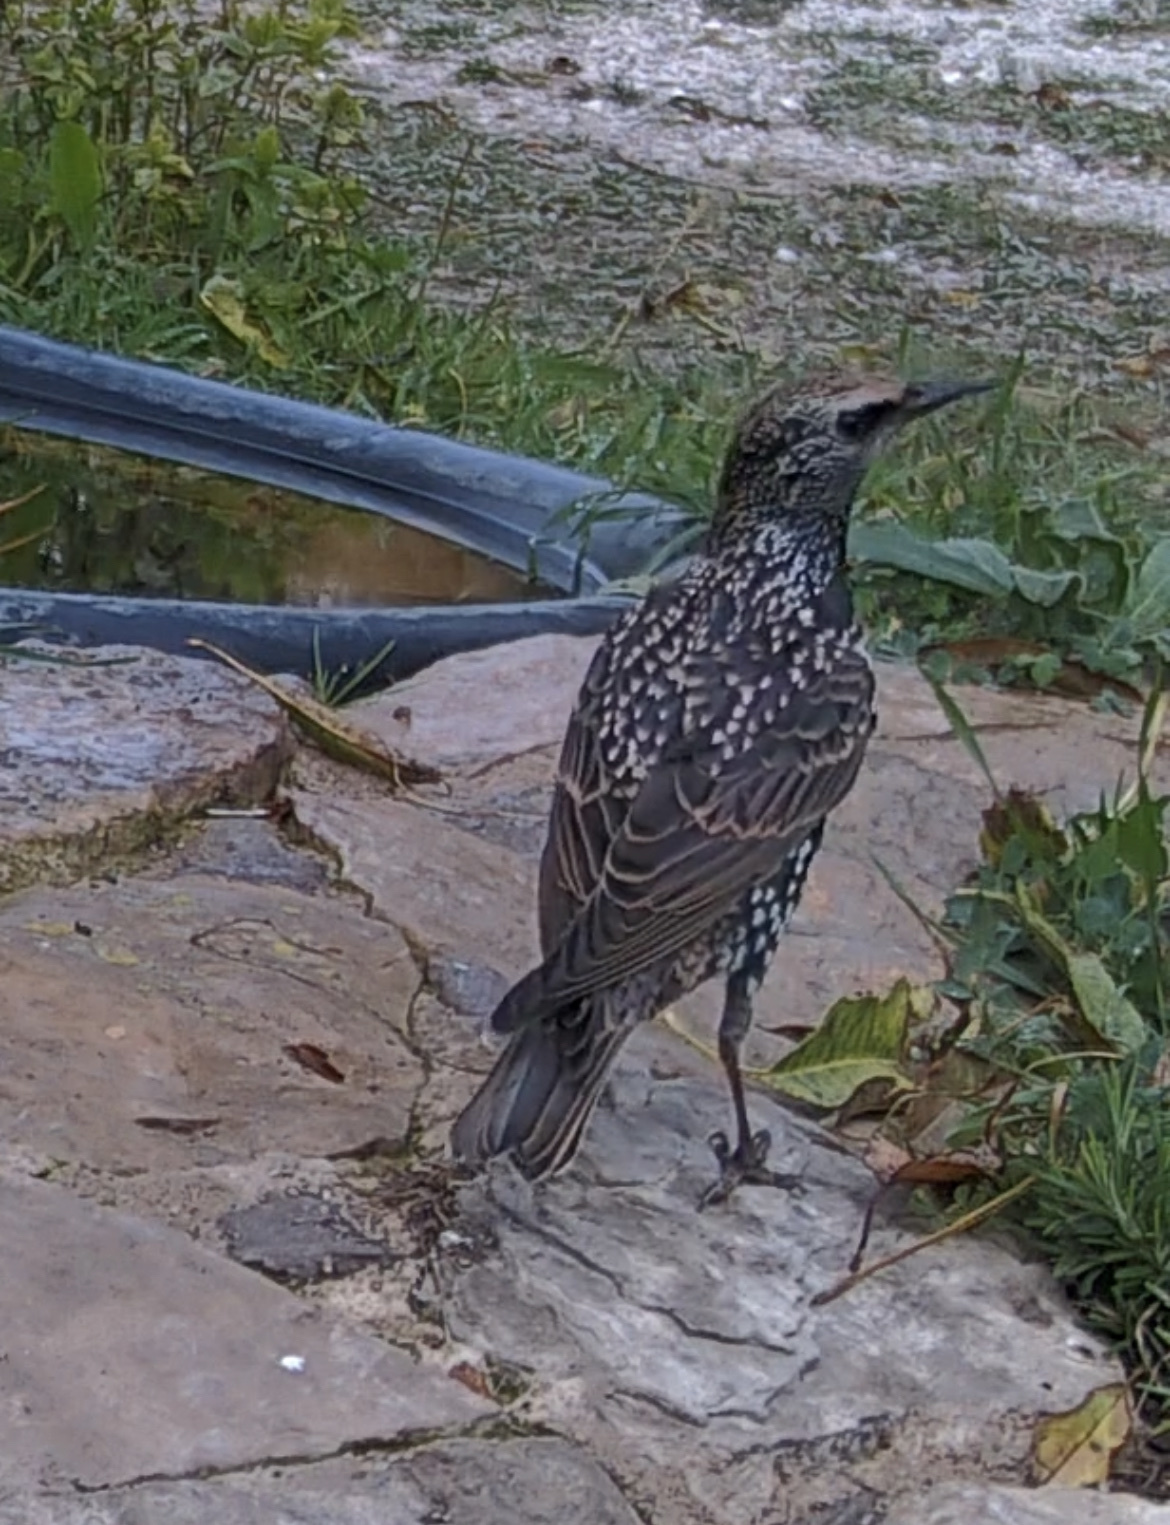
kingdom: Animalia
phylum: Chordata
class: Aves
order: Passeriformes
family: Sturnidae
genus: Sturnus
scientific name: Sturnus vulgaris
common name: Common starling
